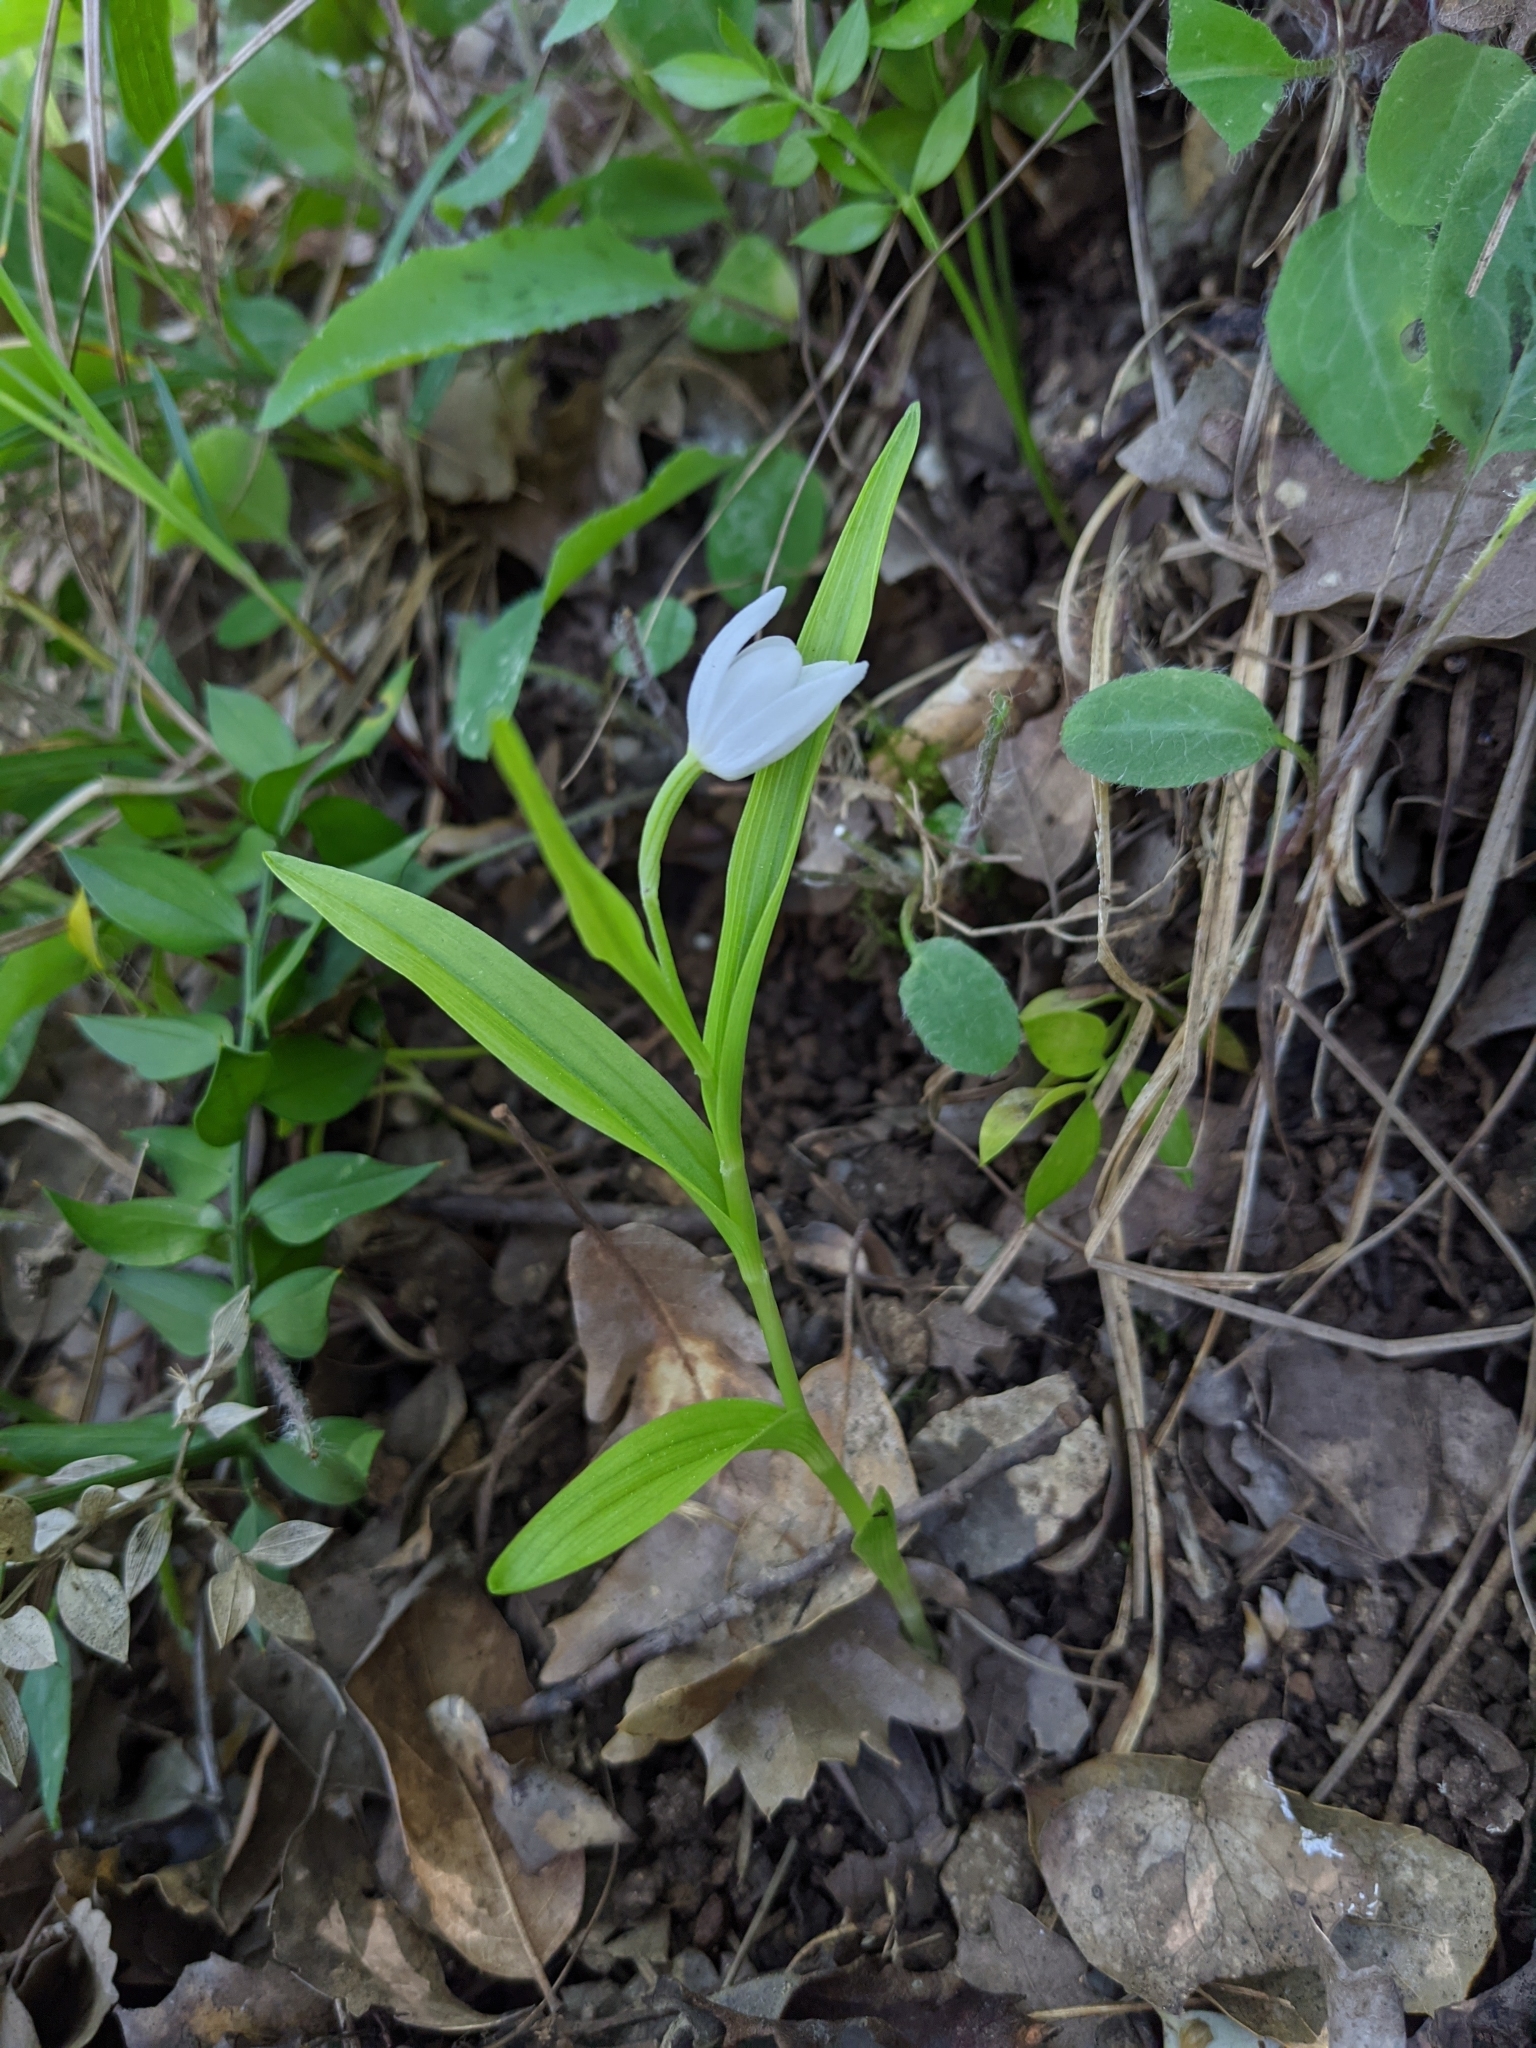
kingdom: Plantae
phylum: Tracheophyta
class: Liliopsida
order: Asparagales
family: Orchidaceae
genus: Cephalanthera
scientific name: Cephalanthera longifolia
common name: Narrow-leaved helleborine
